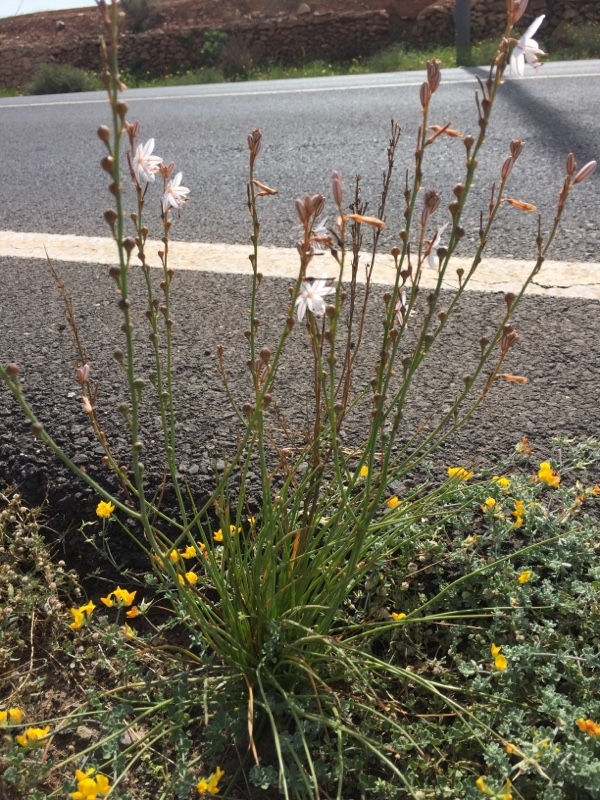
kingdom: Plantae
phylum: Tracheophyta
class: Liliopsida
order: Asparagales
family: Asphodelaceae
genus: Asphodelus
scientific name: Asphodelus fistulosus
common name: Onionweed
